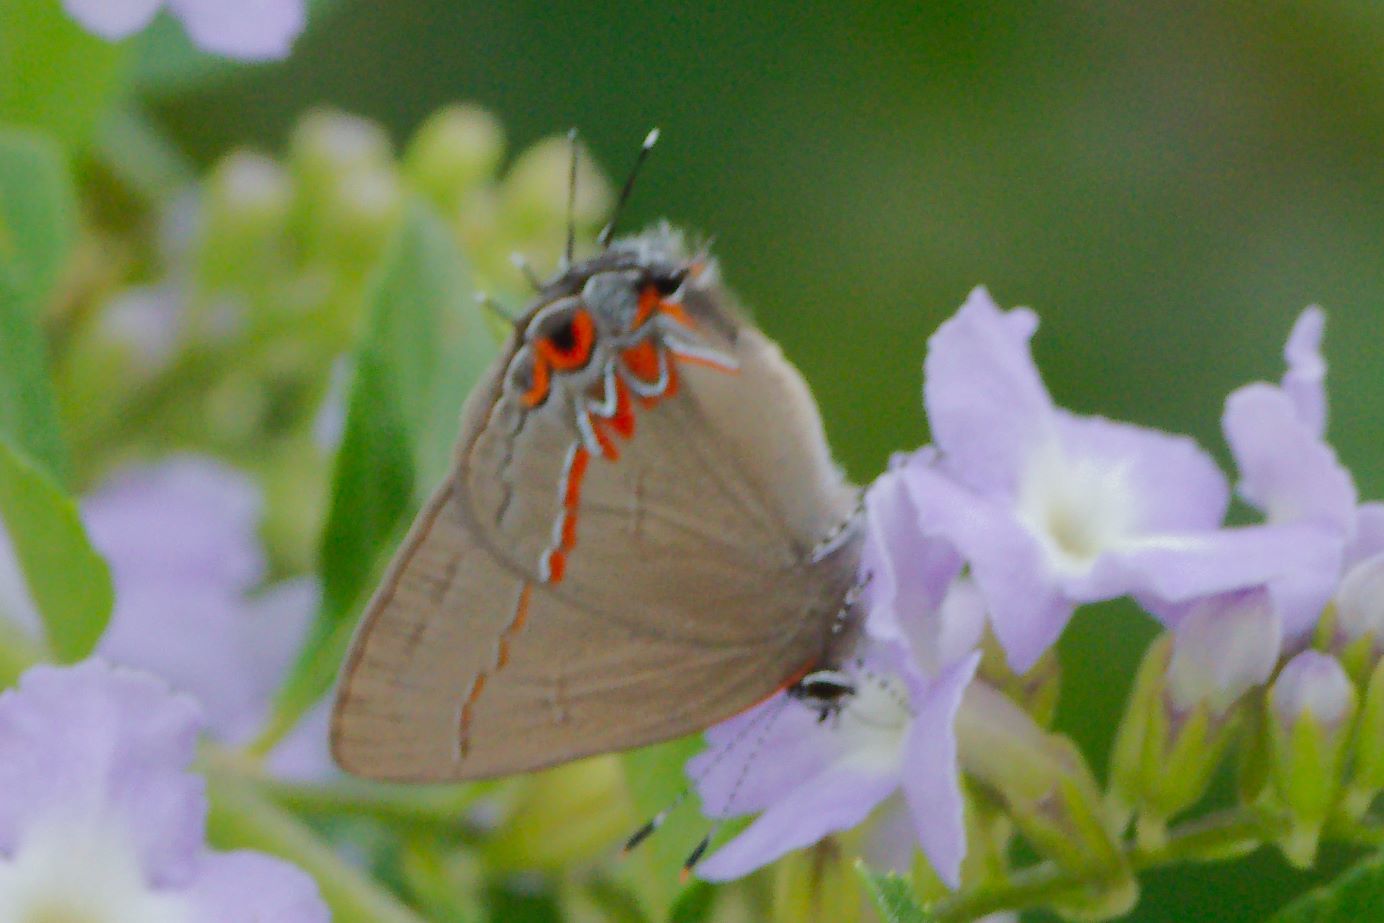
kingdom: Animalia
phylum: Arthropoda
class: Insecta
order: Lepidoptera
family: Lycaenidae
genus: Calycopis
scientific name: Calycopis isobeon
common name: Dusky-blue groundstreak
